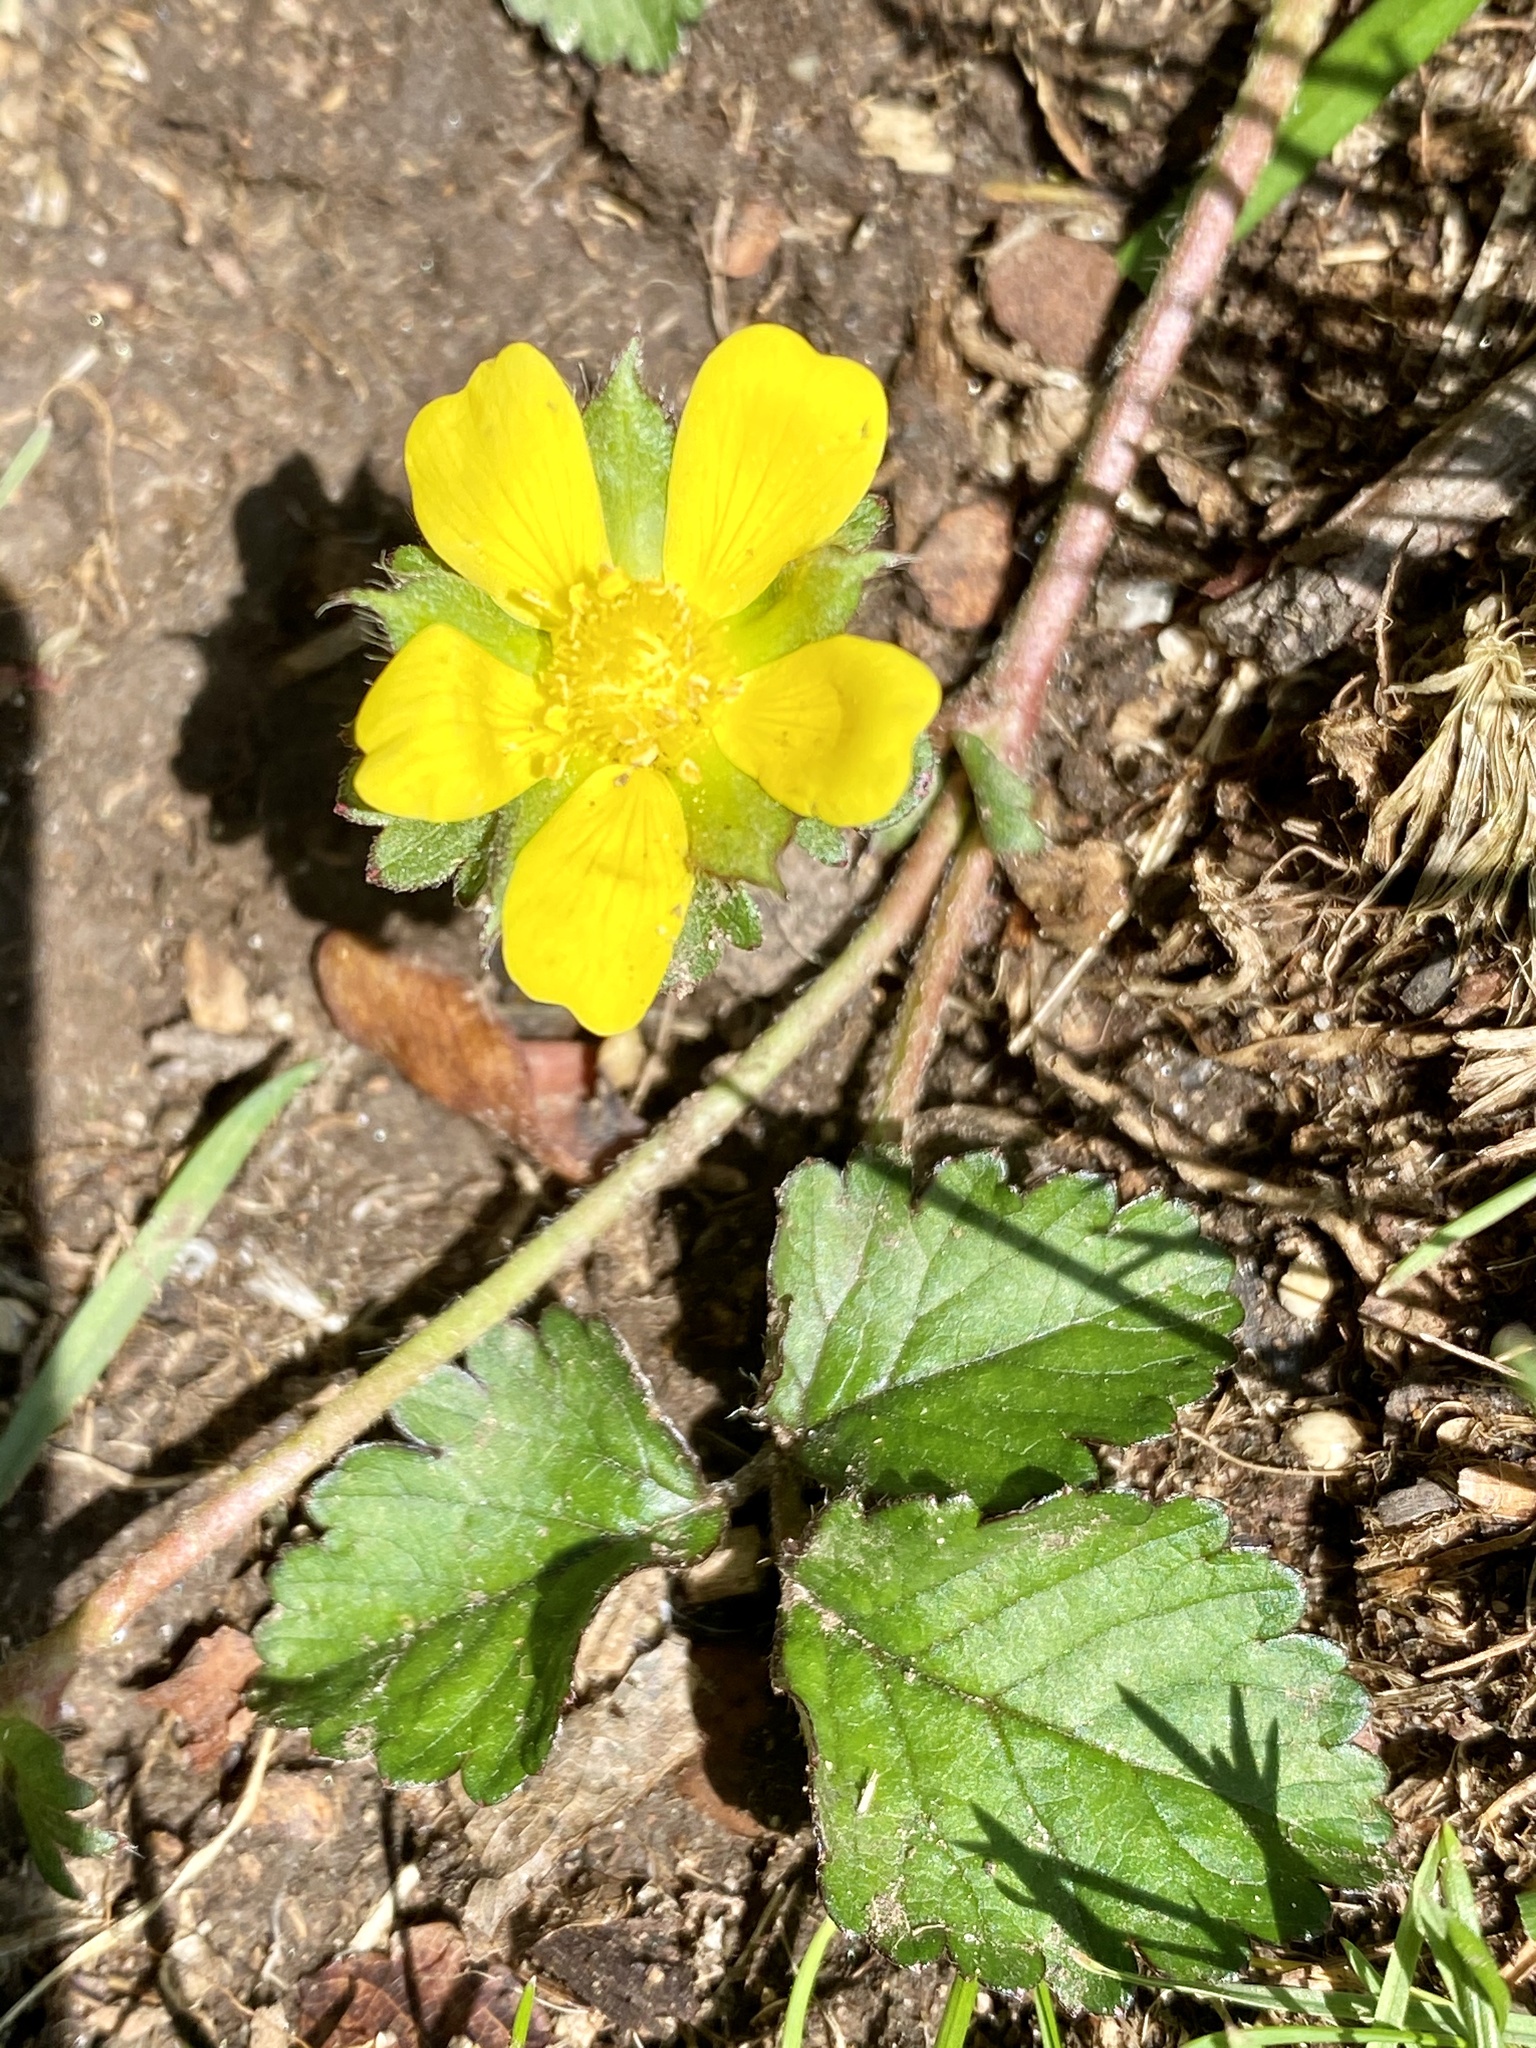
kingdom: Plantae
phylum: Tracheophyta
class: Magnoliopsida
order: Rosales
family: Rosaceae
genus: Potentilla
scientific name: Potentilla indica
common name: Yellow-flowered strawberry
